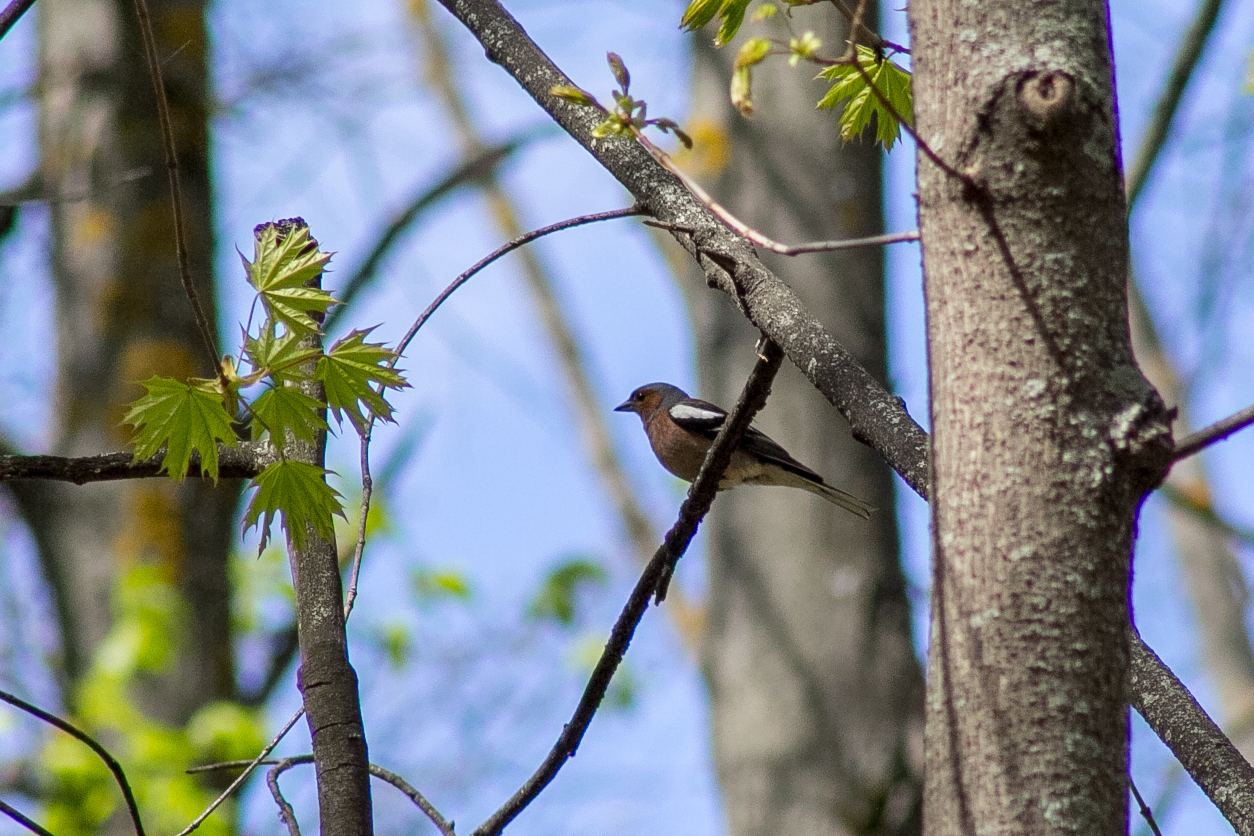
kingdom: Animalia
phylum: Chordata
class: Aves
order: Passeriformes
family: Fringillidae
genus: Fringilla
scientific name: Fringilla coelebs
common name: Common chaffinch
